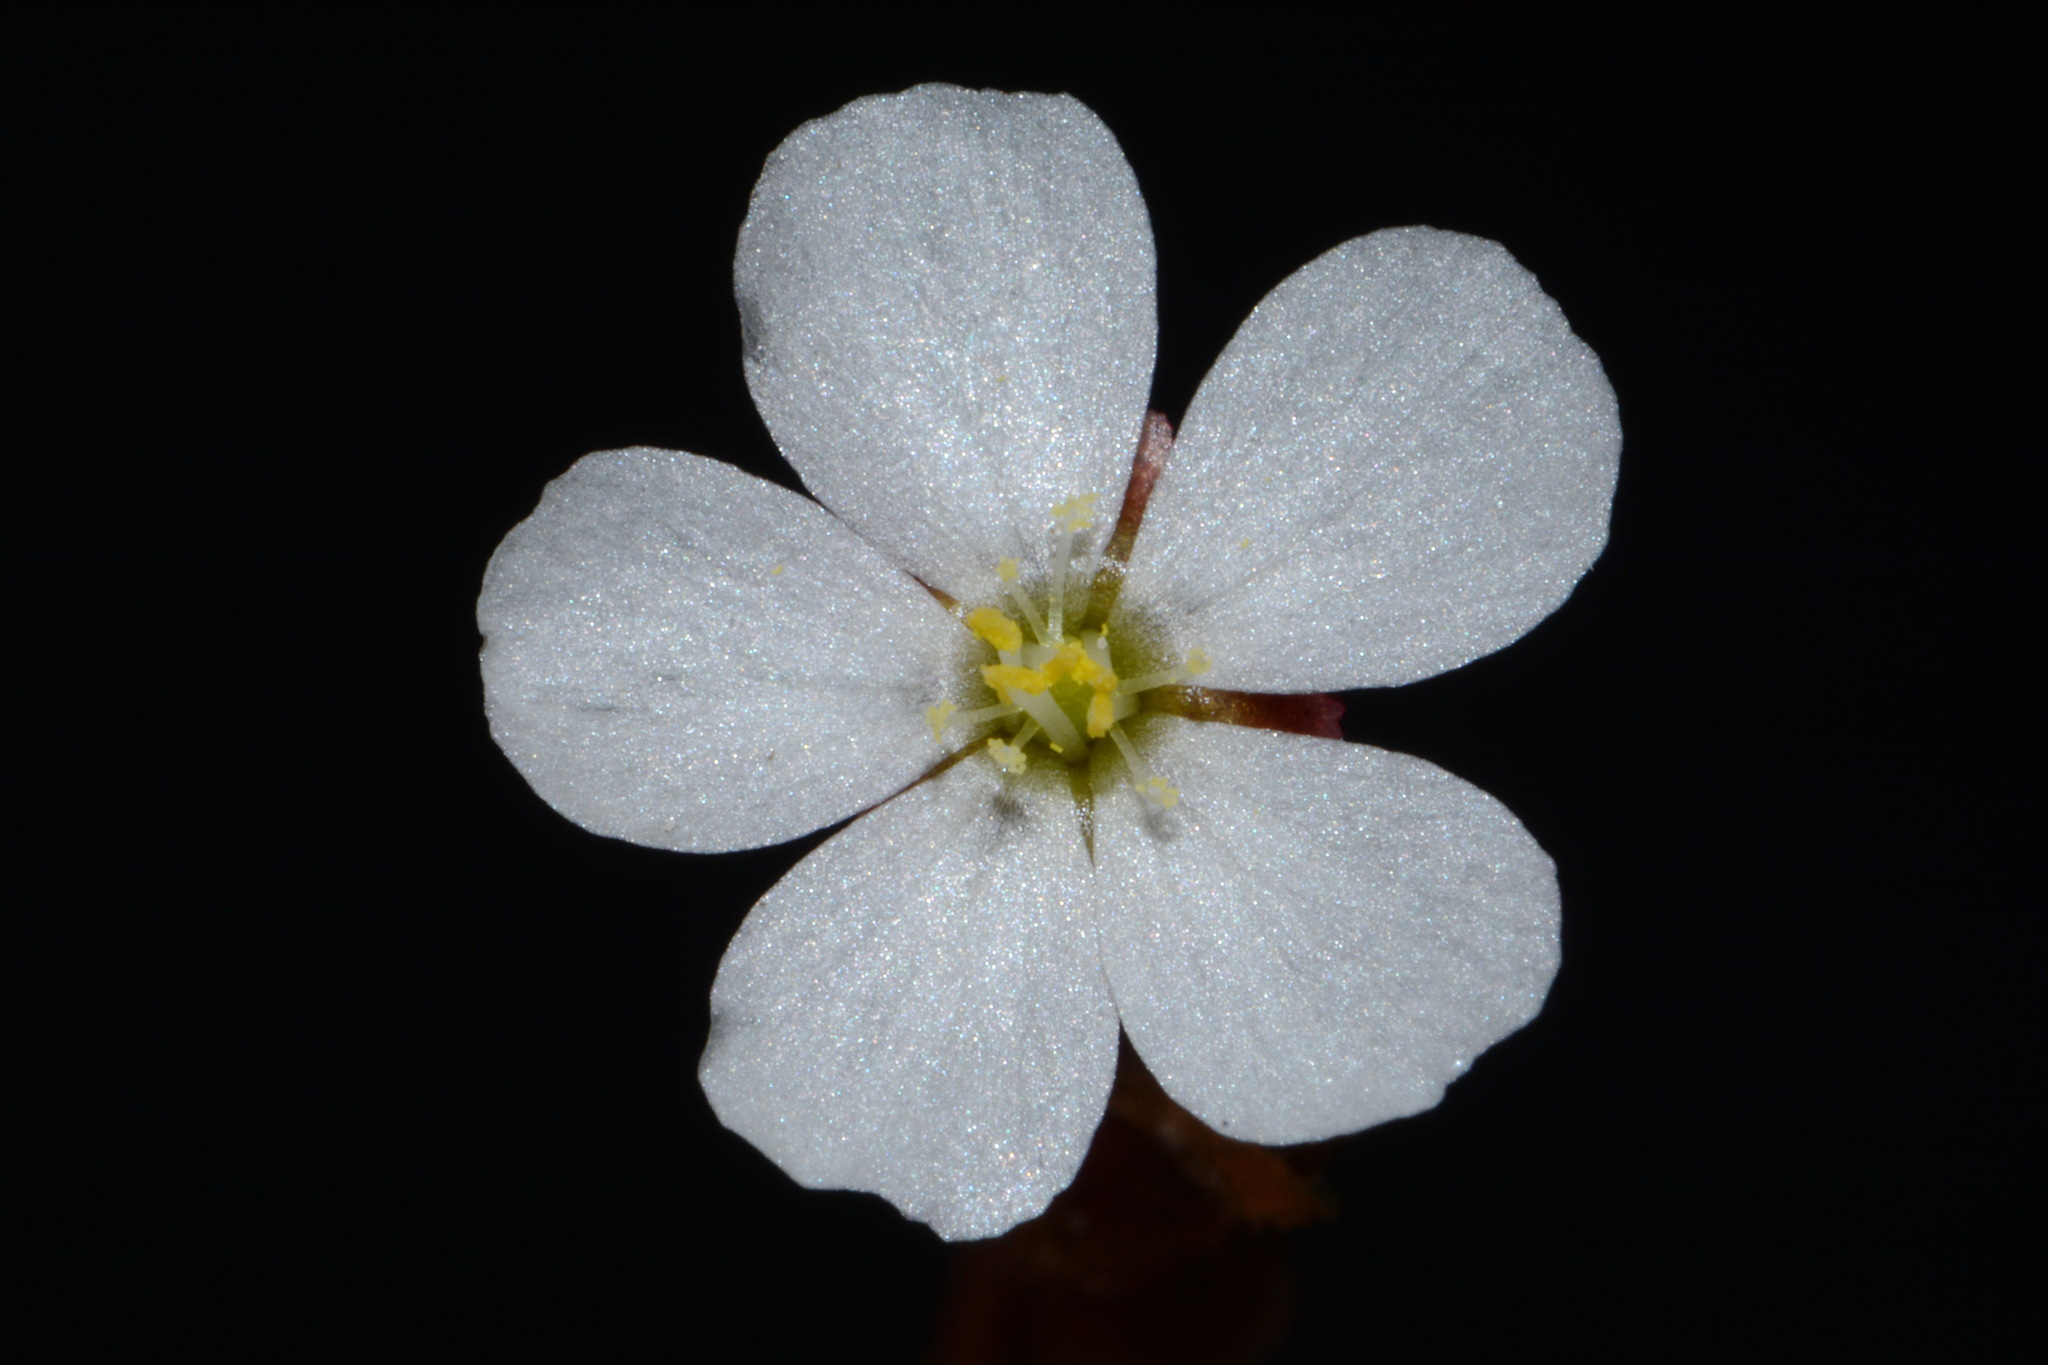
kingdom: Plantae
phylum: Tracheophyta
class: Magnoliopsida
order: Caryophyllales
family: Droseraceae
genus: Drosera
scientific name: Drosera brevifolia
